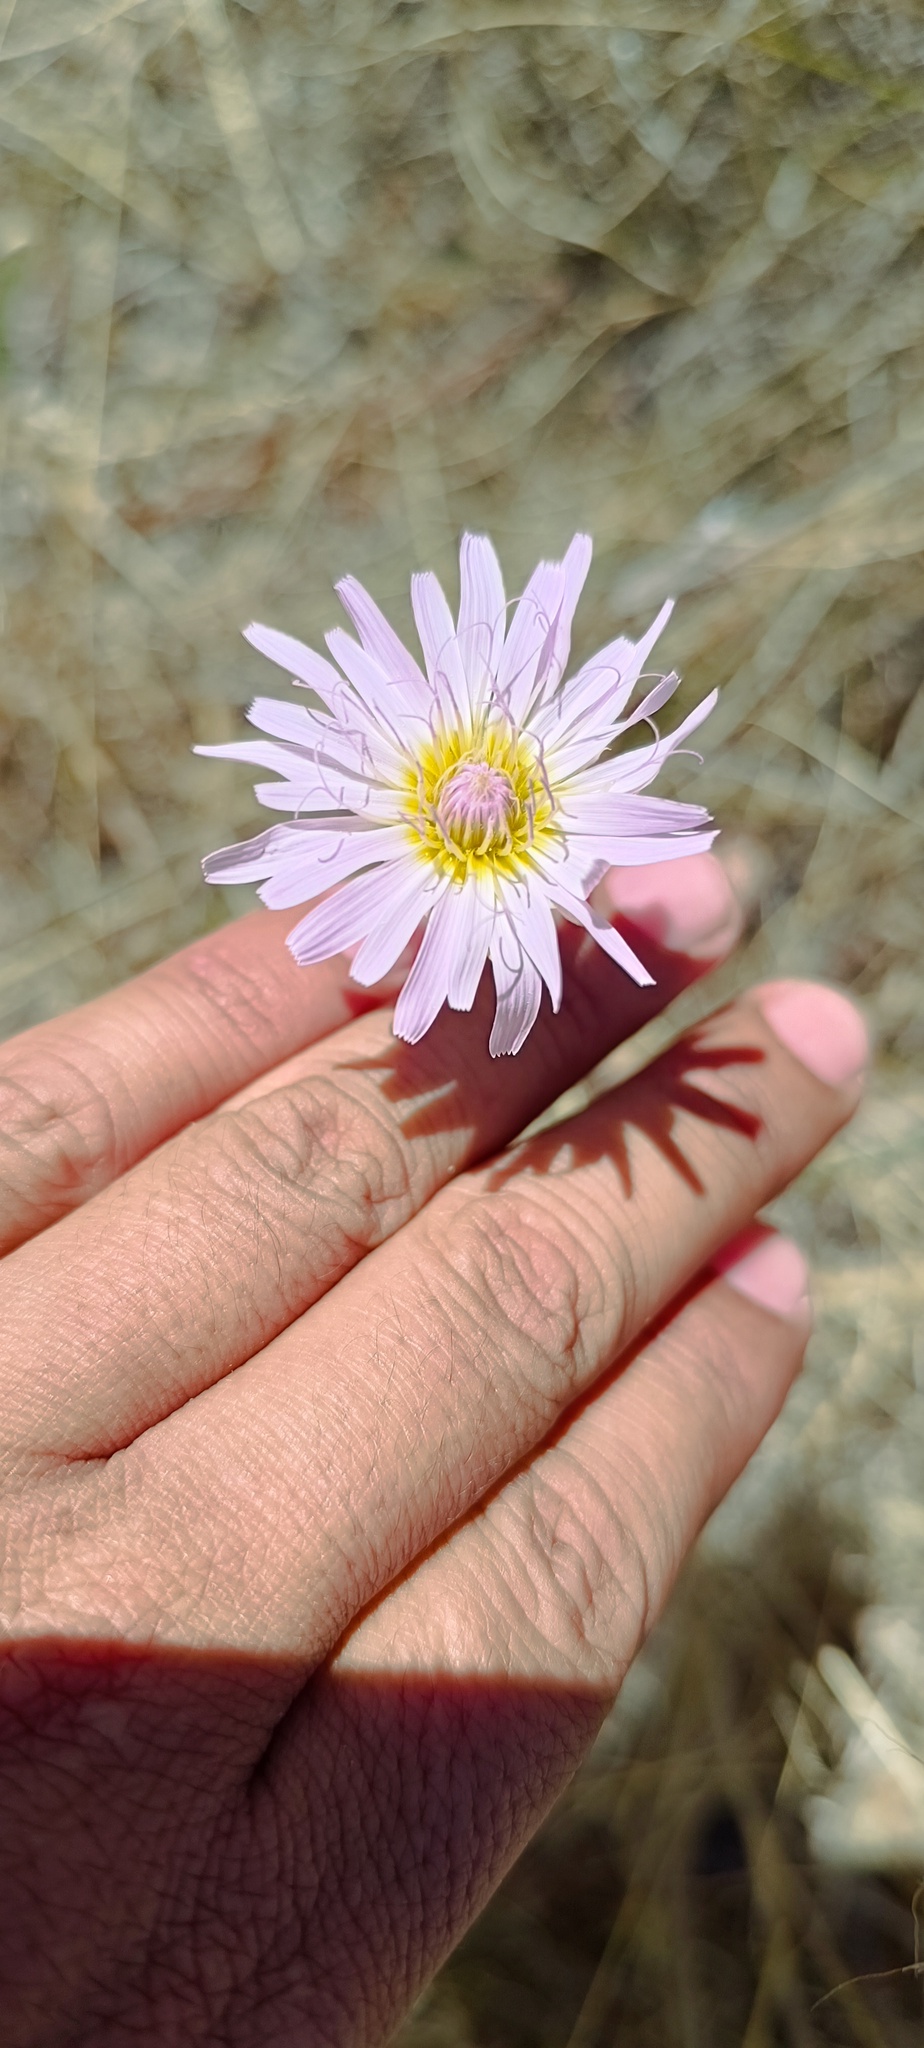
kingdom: Plantae
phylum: Tracheophyta
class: Magnoliopsida
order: Asterales
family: Asteraceae
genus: Pinaropappus
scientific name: Pinaropappus roseus
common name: Rock-lettuce
